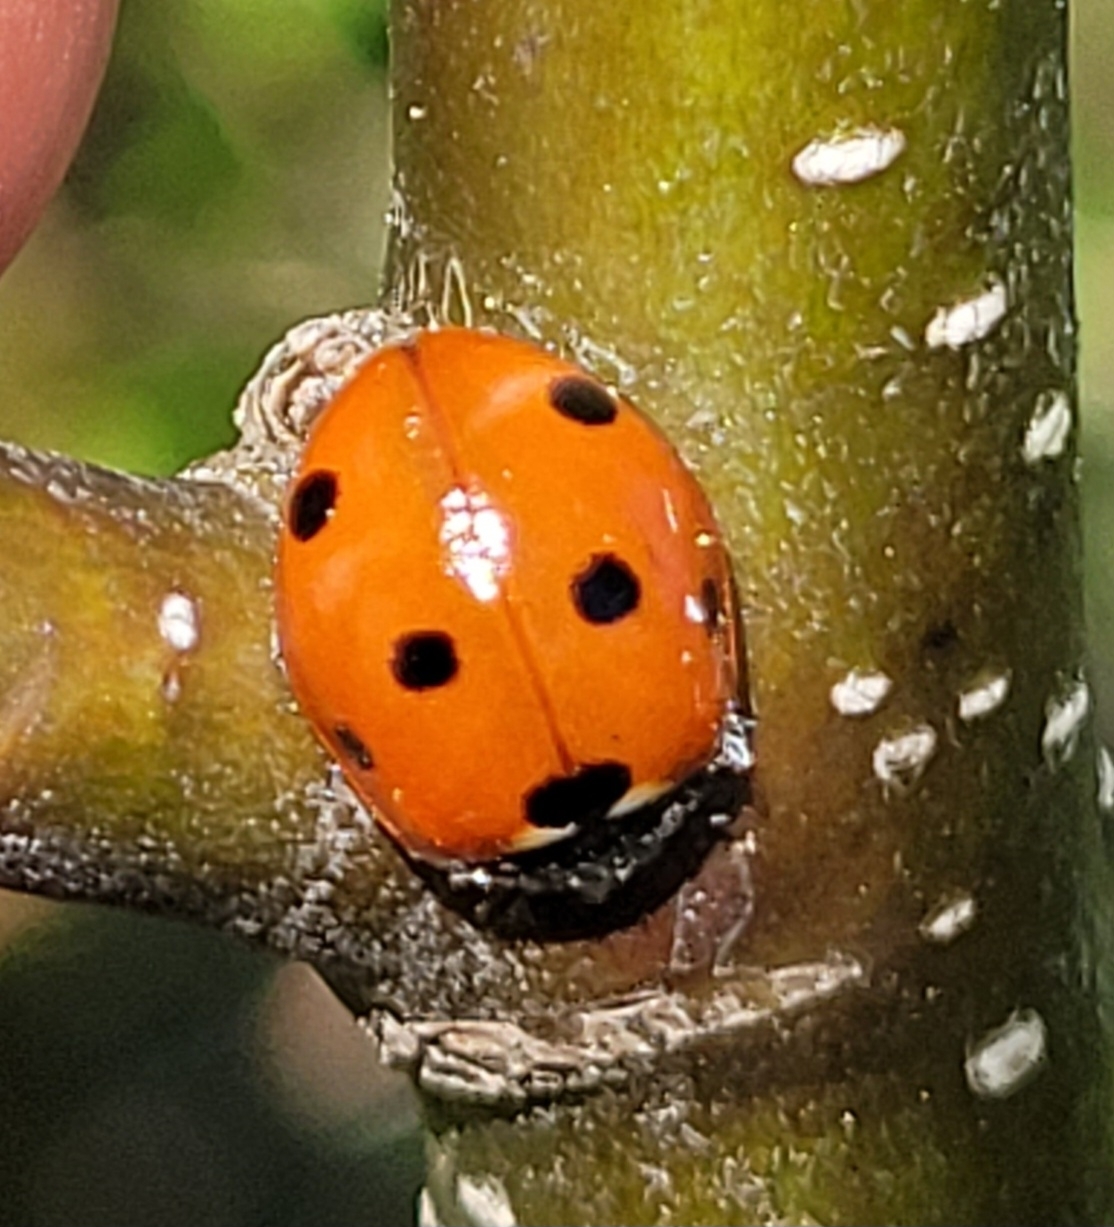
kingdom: Animalia
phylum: Arthropoda
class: Insecta
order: Coleoptera
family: Coccinellidae
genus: Coccinella
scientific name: Coccinella septempunctata
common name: Sevenspotted lady beetle
